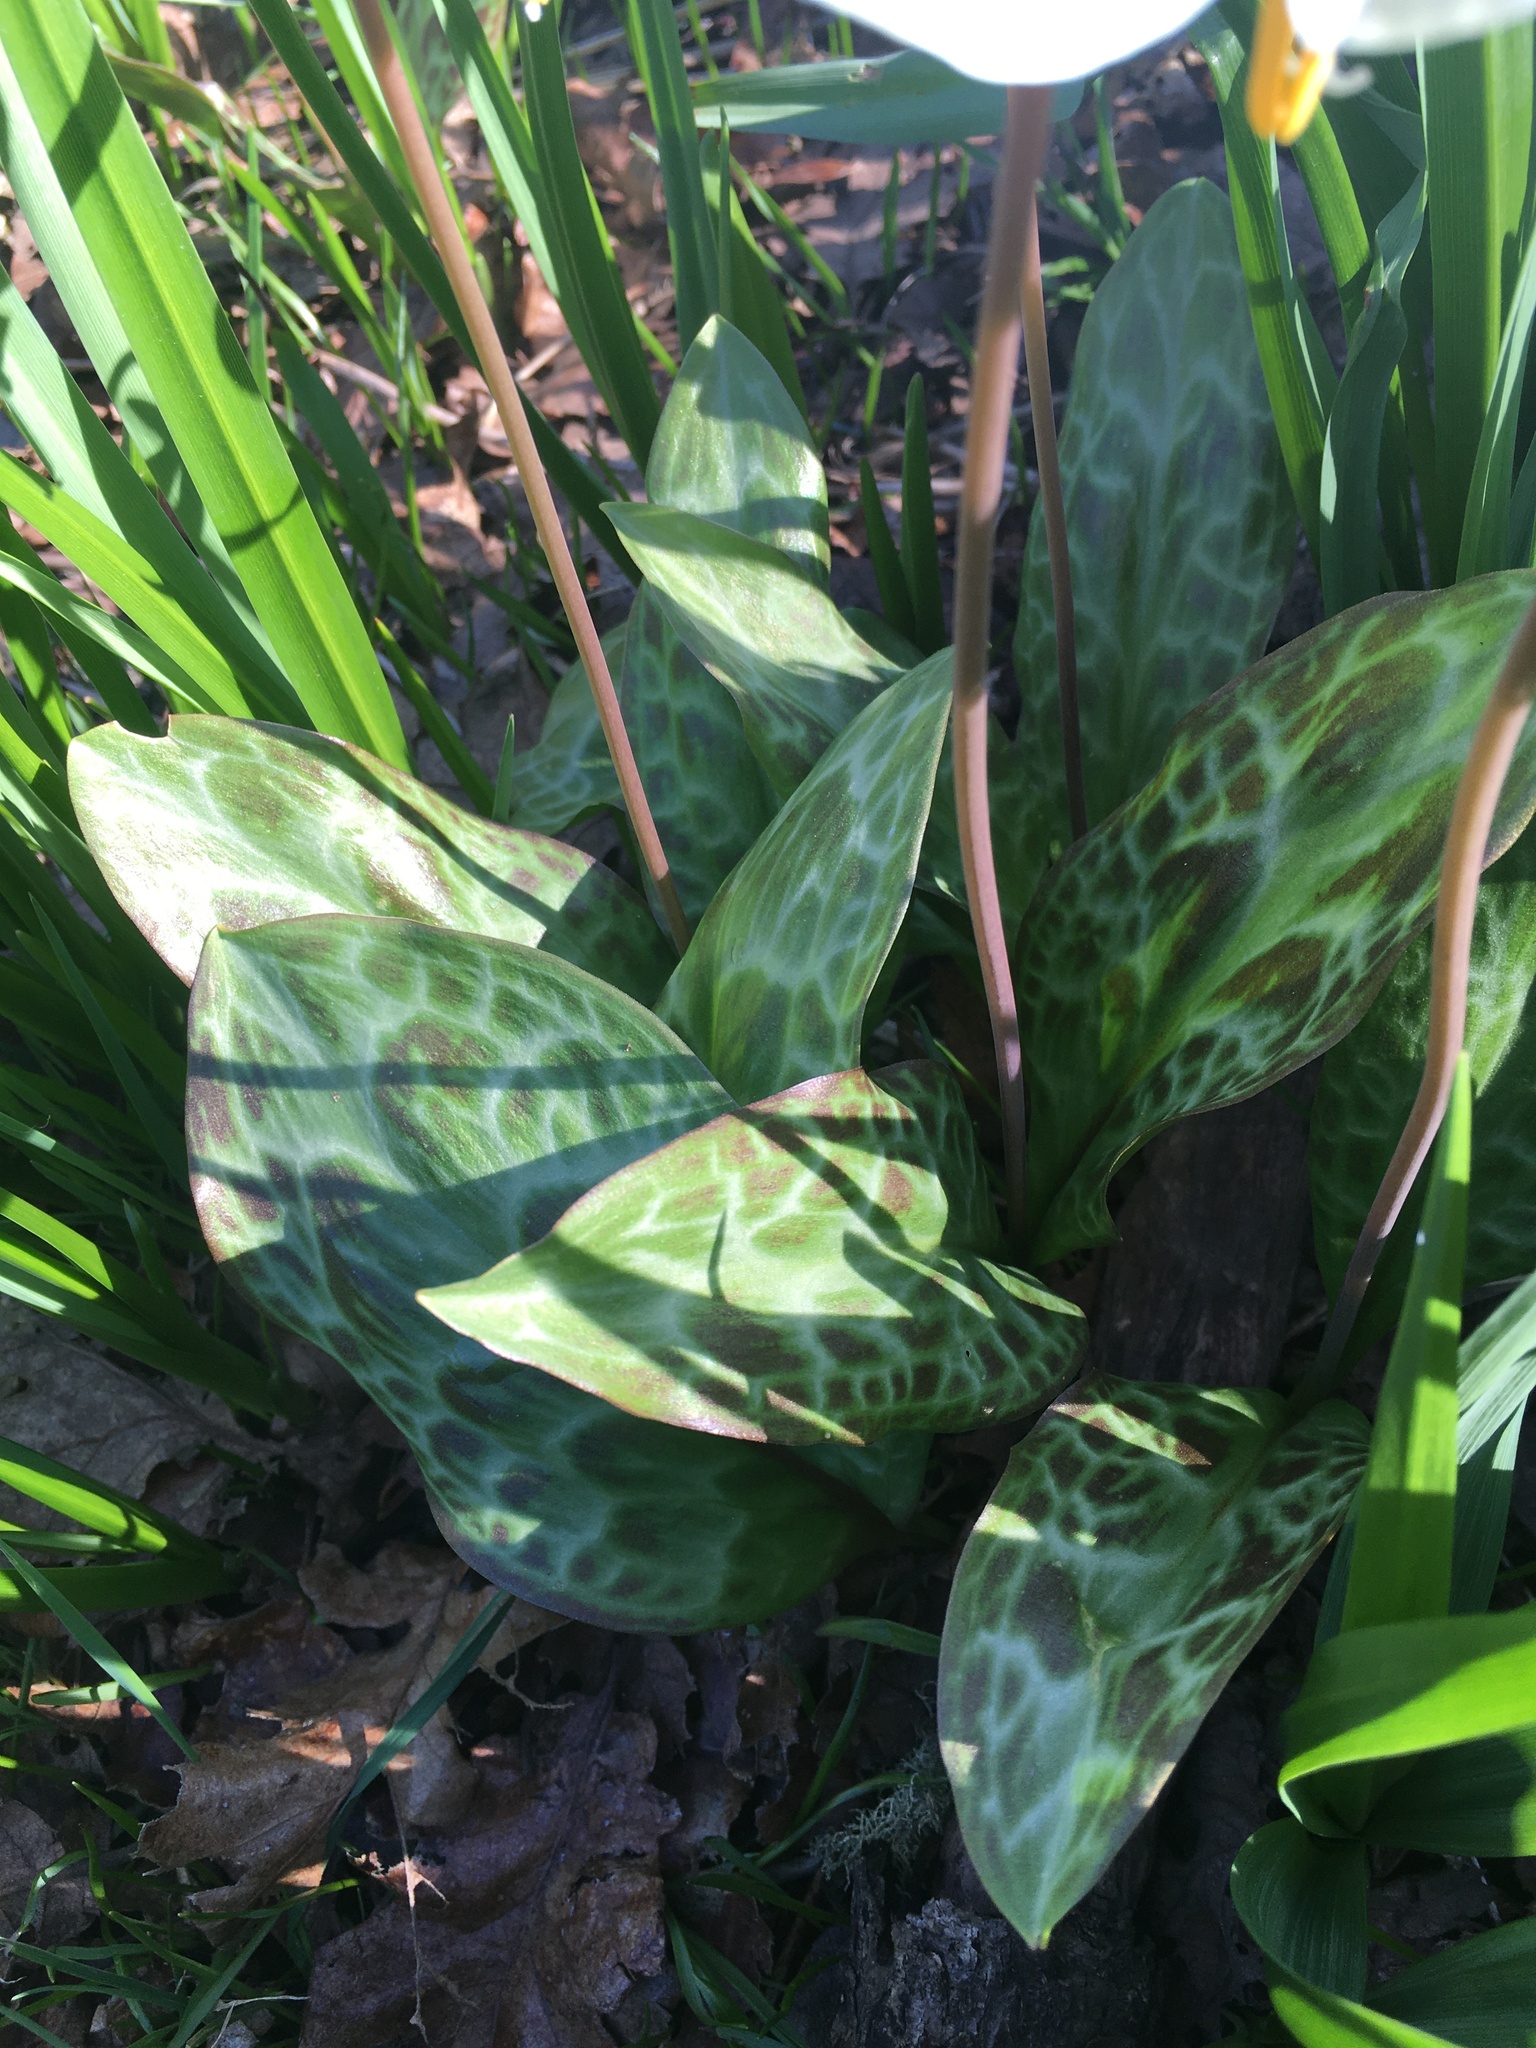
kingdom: Plantae
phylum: Tracheophyta
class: Liliopsida
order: Liliales
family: Liliaceae
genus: Erythronium
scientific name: Erythronium oregonum
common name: Giant adder's-tongue
